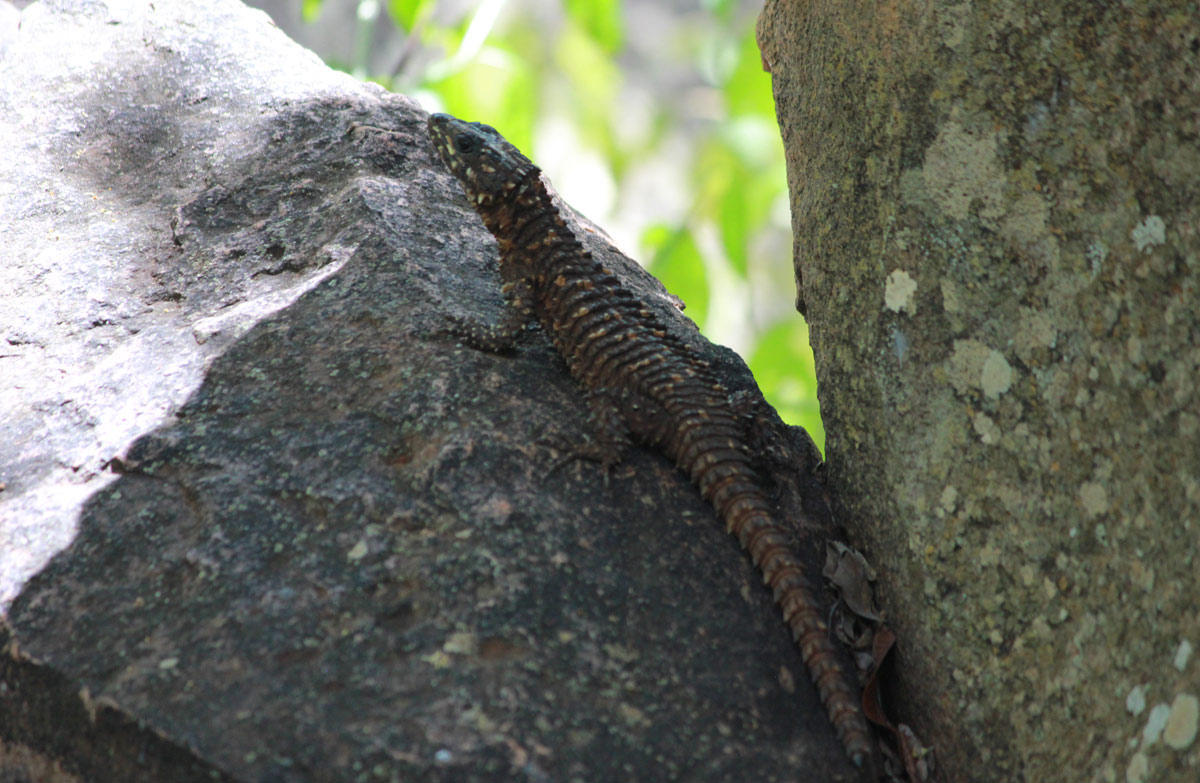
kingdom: Animalia
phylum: Chordata
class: Squamata
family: Cordylidae
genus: Smaug
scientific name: Smaug depressus
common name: Flat dragon lizard
